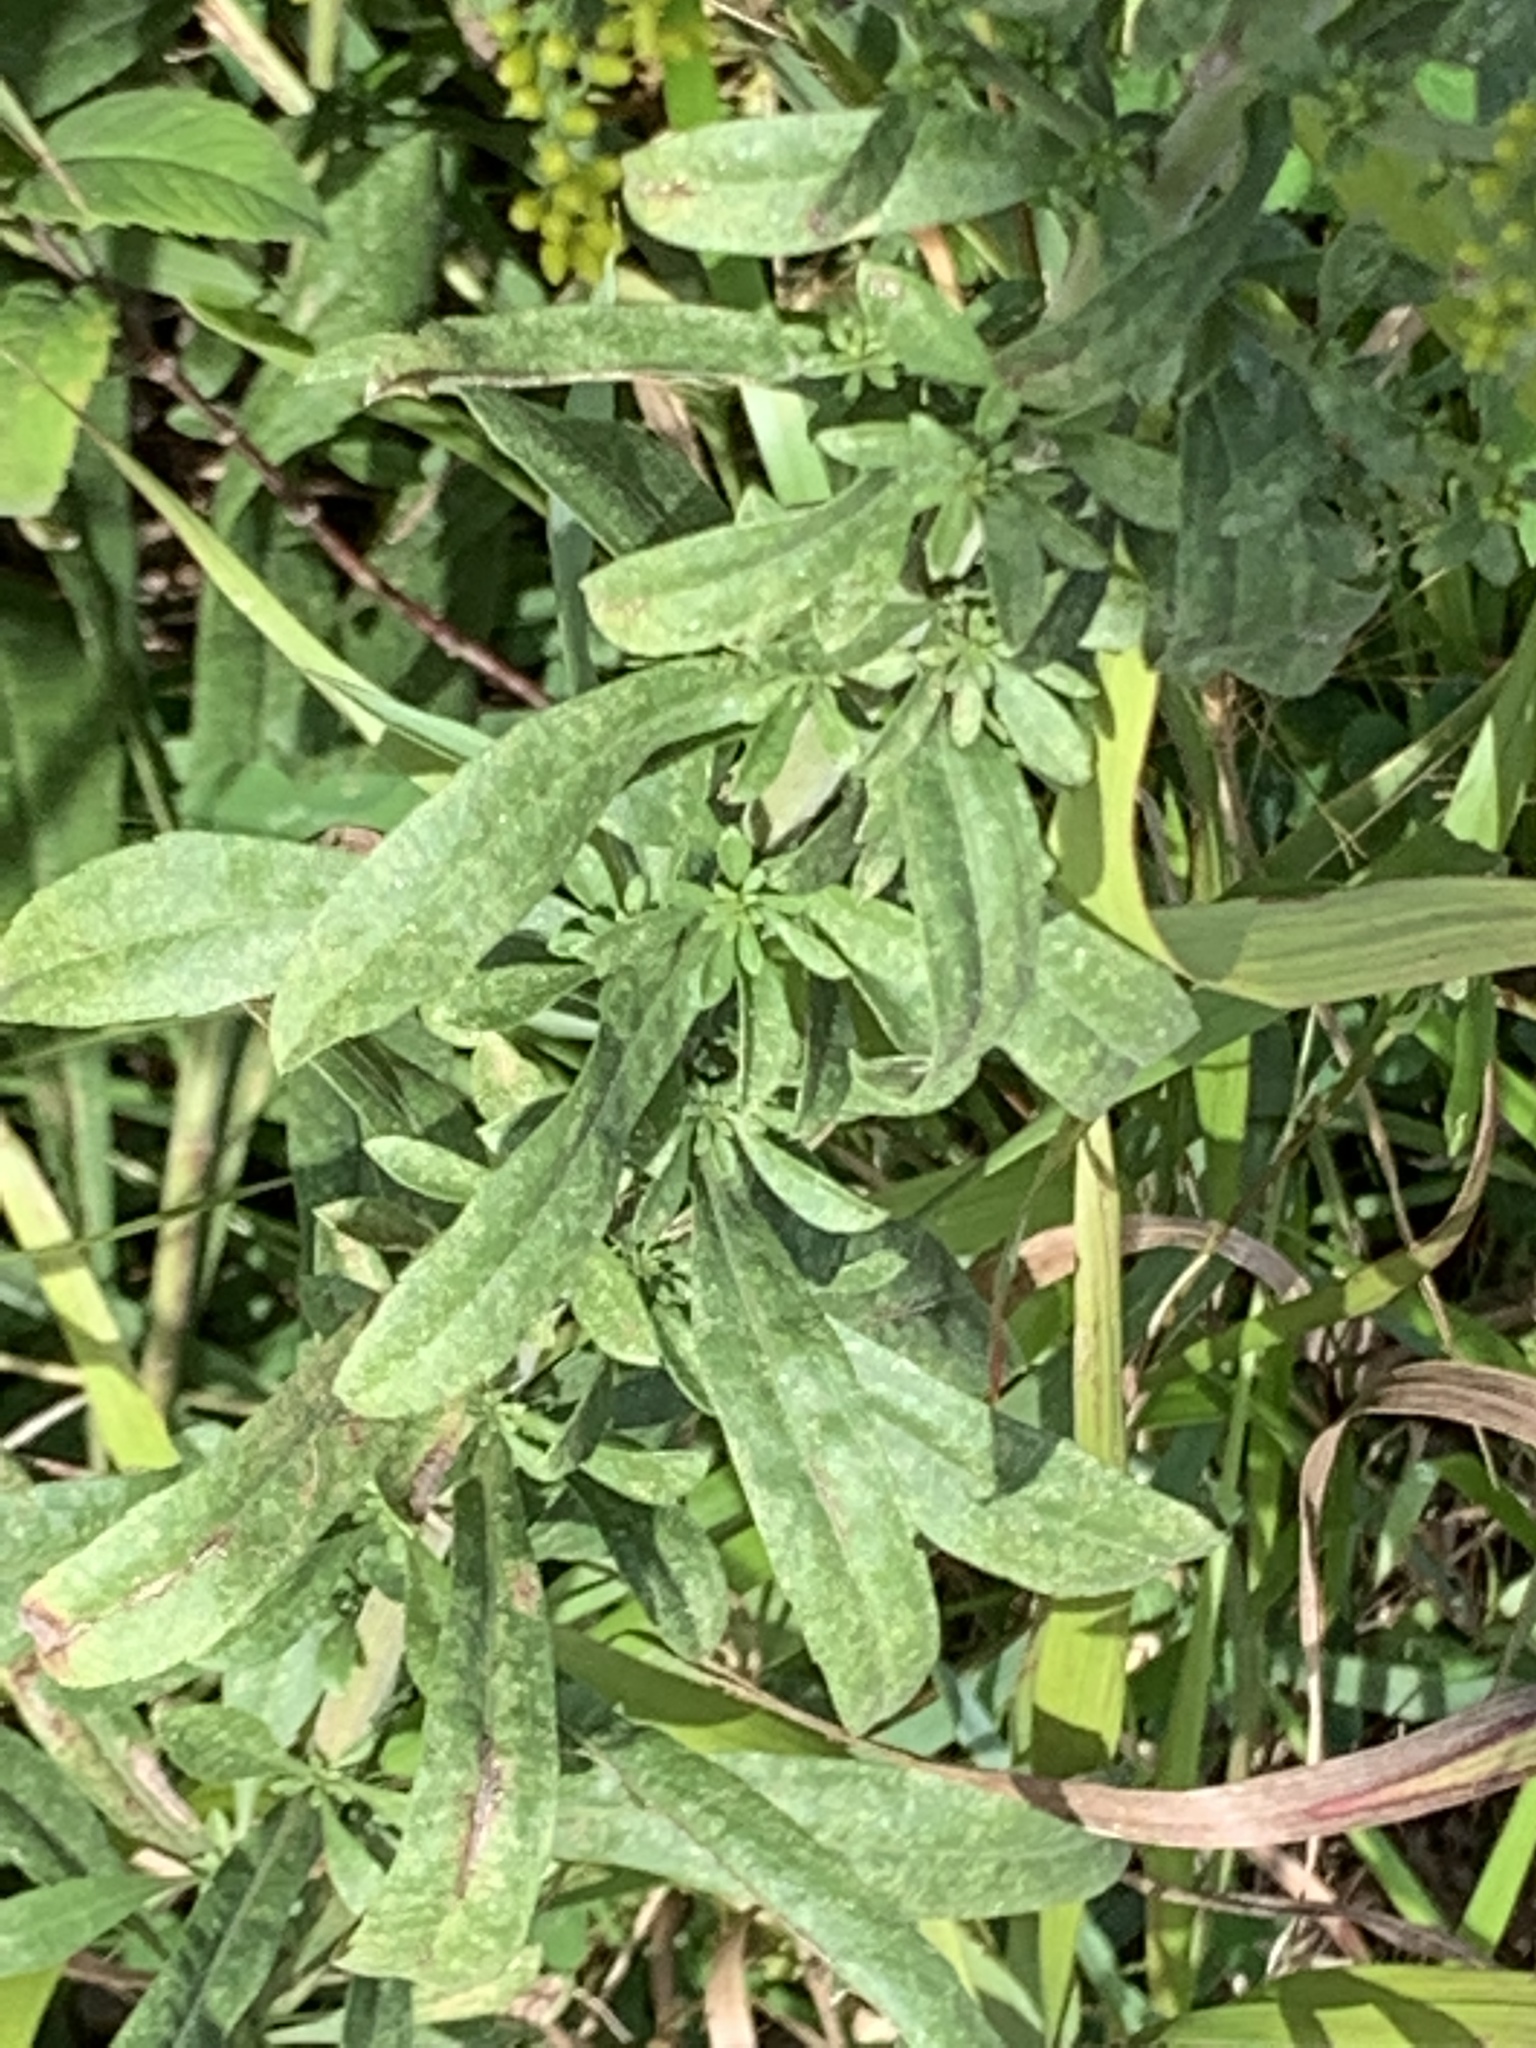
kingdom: Plantae
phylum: Tracheophyta
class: Magnoliopsida
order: Asterales
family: Asteraceae
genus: Solidago
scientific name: Solidago nemoralis
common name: Grey goldenrod
